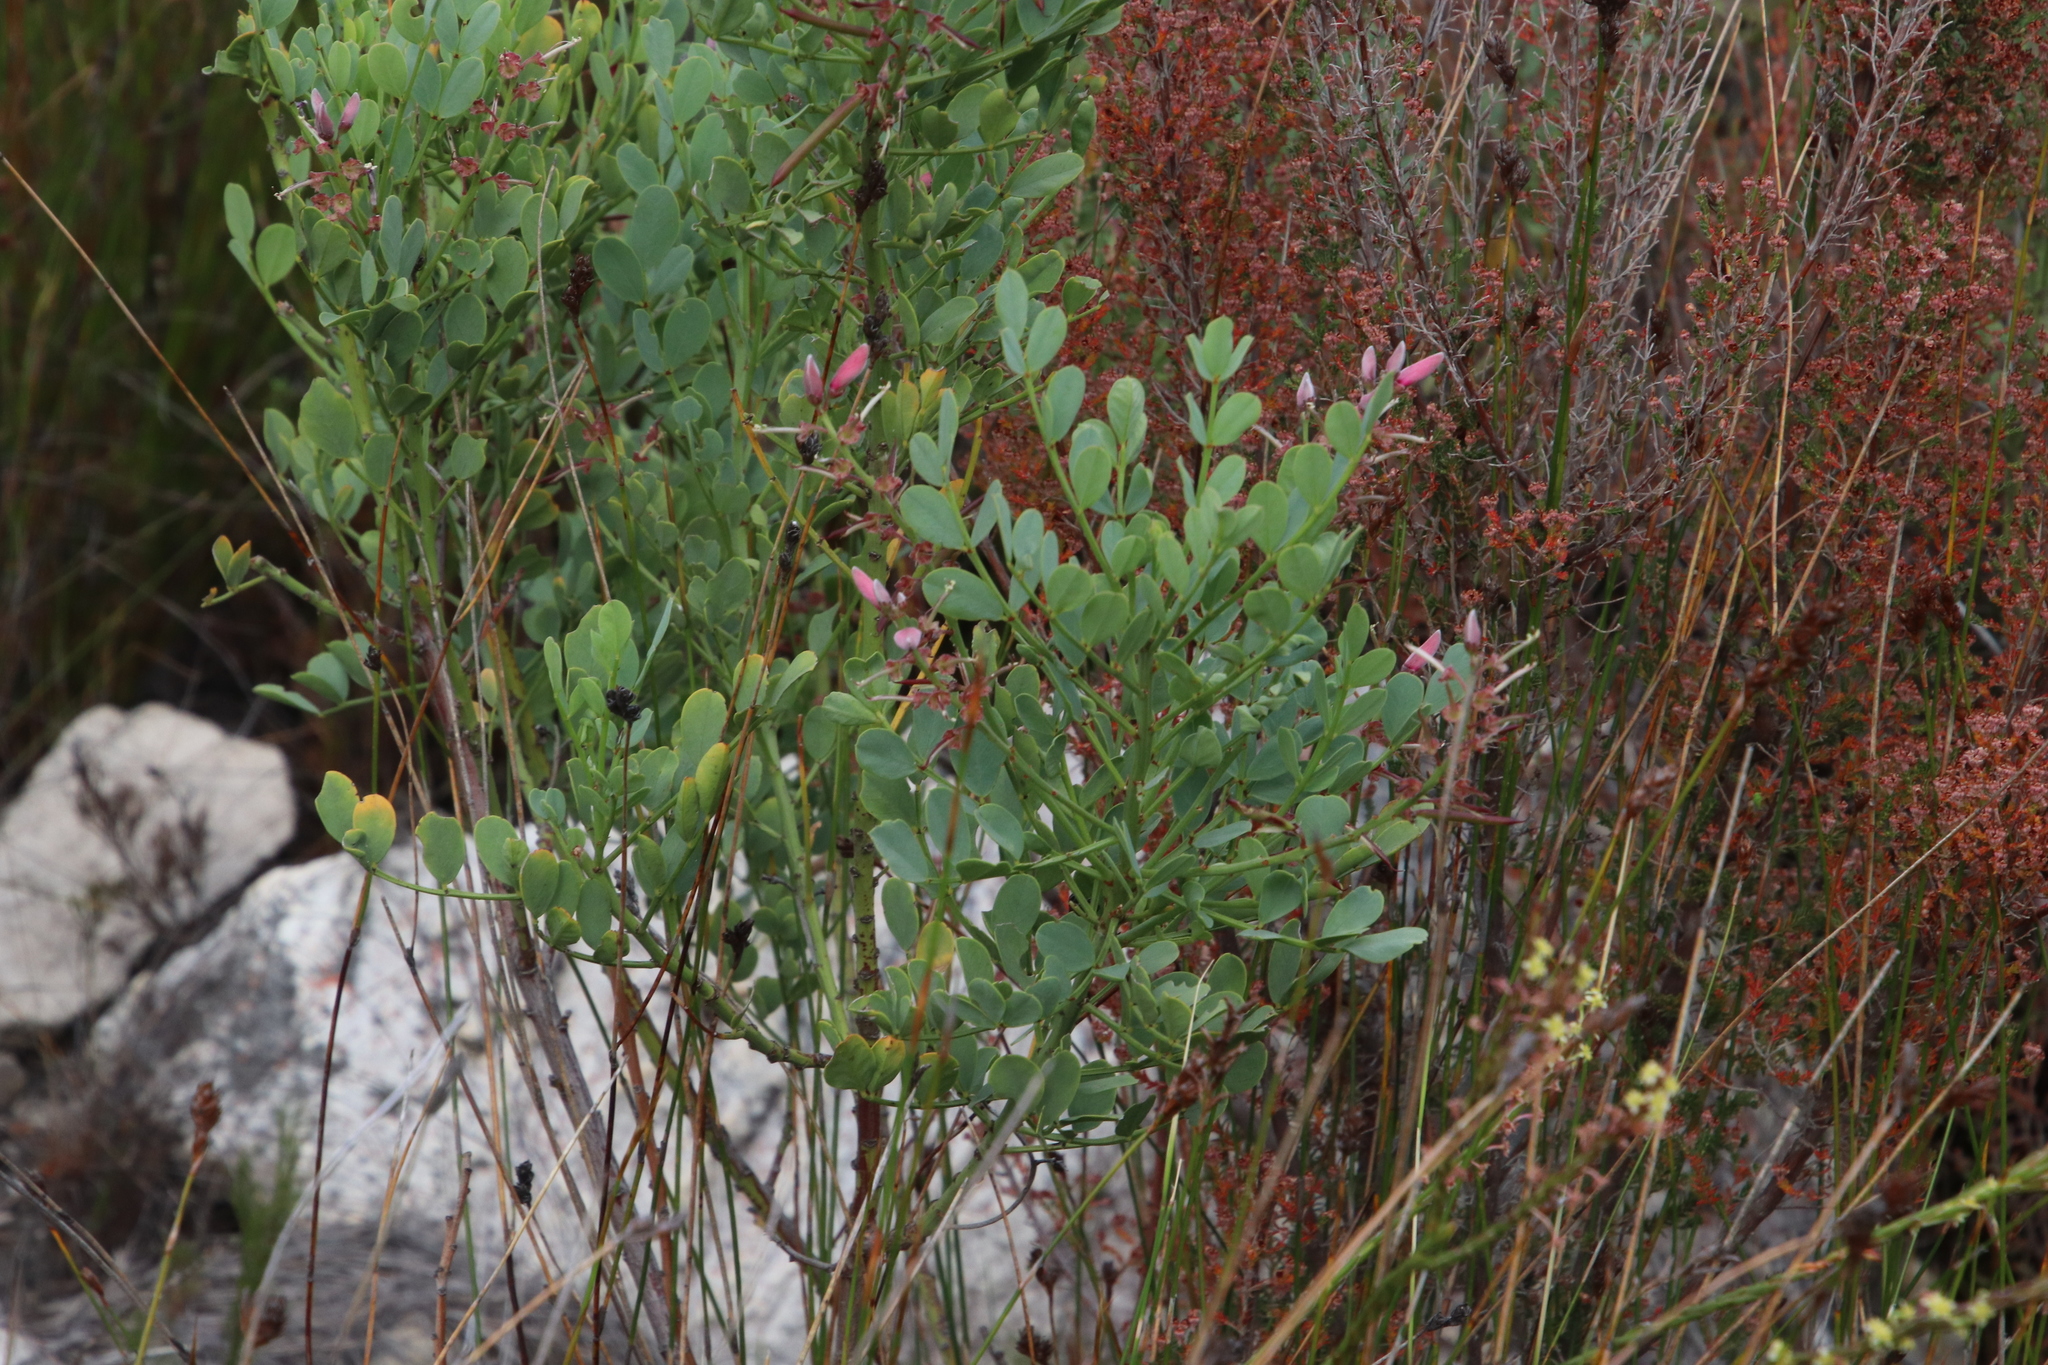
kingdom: Plantae
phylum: Tracheophyta
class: Magnoliopsida
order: Fabales
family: Fabaceae
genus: Indigofera
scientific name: Indigofera frutescens
